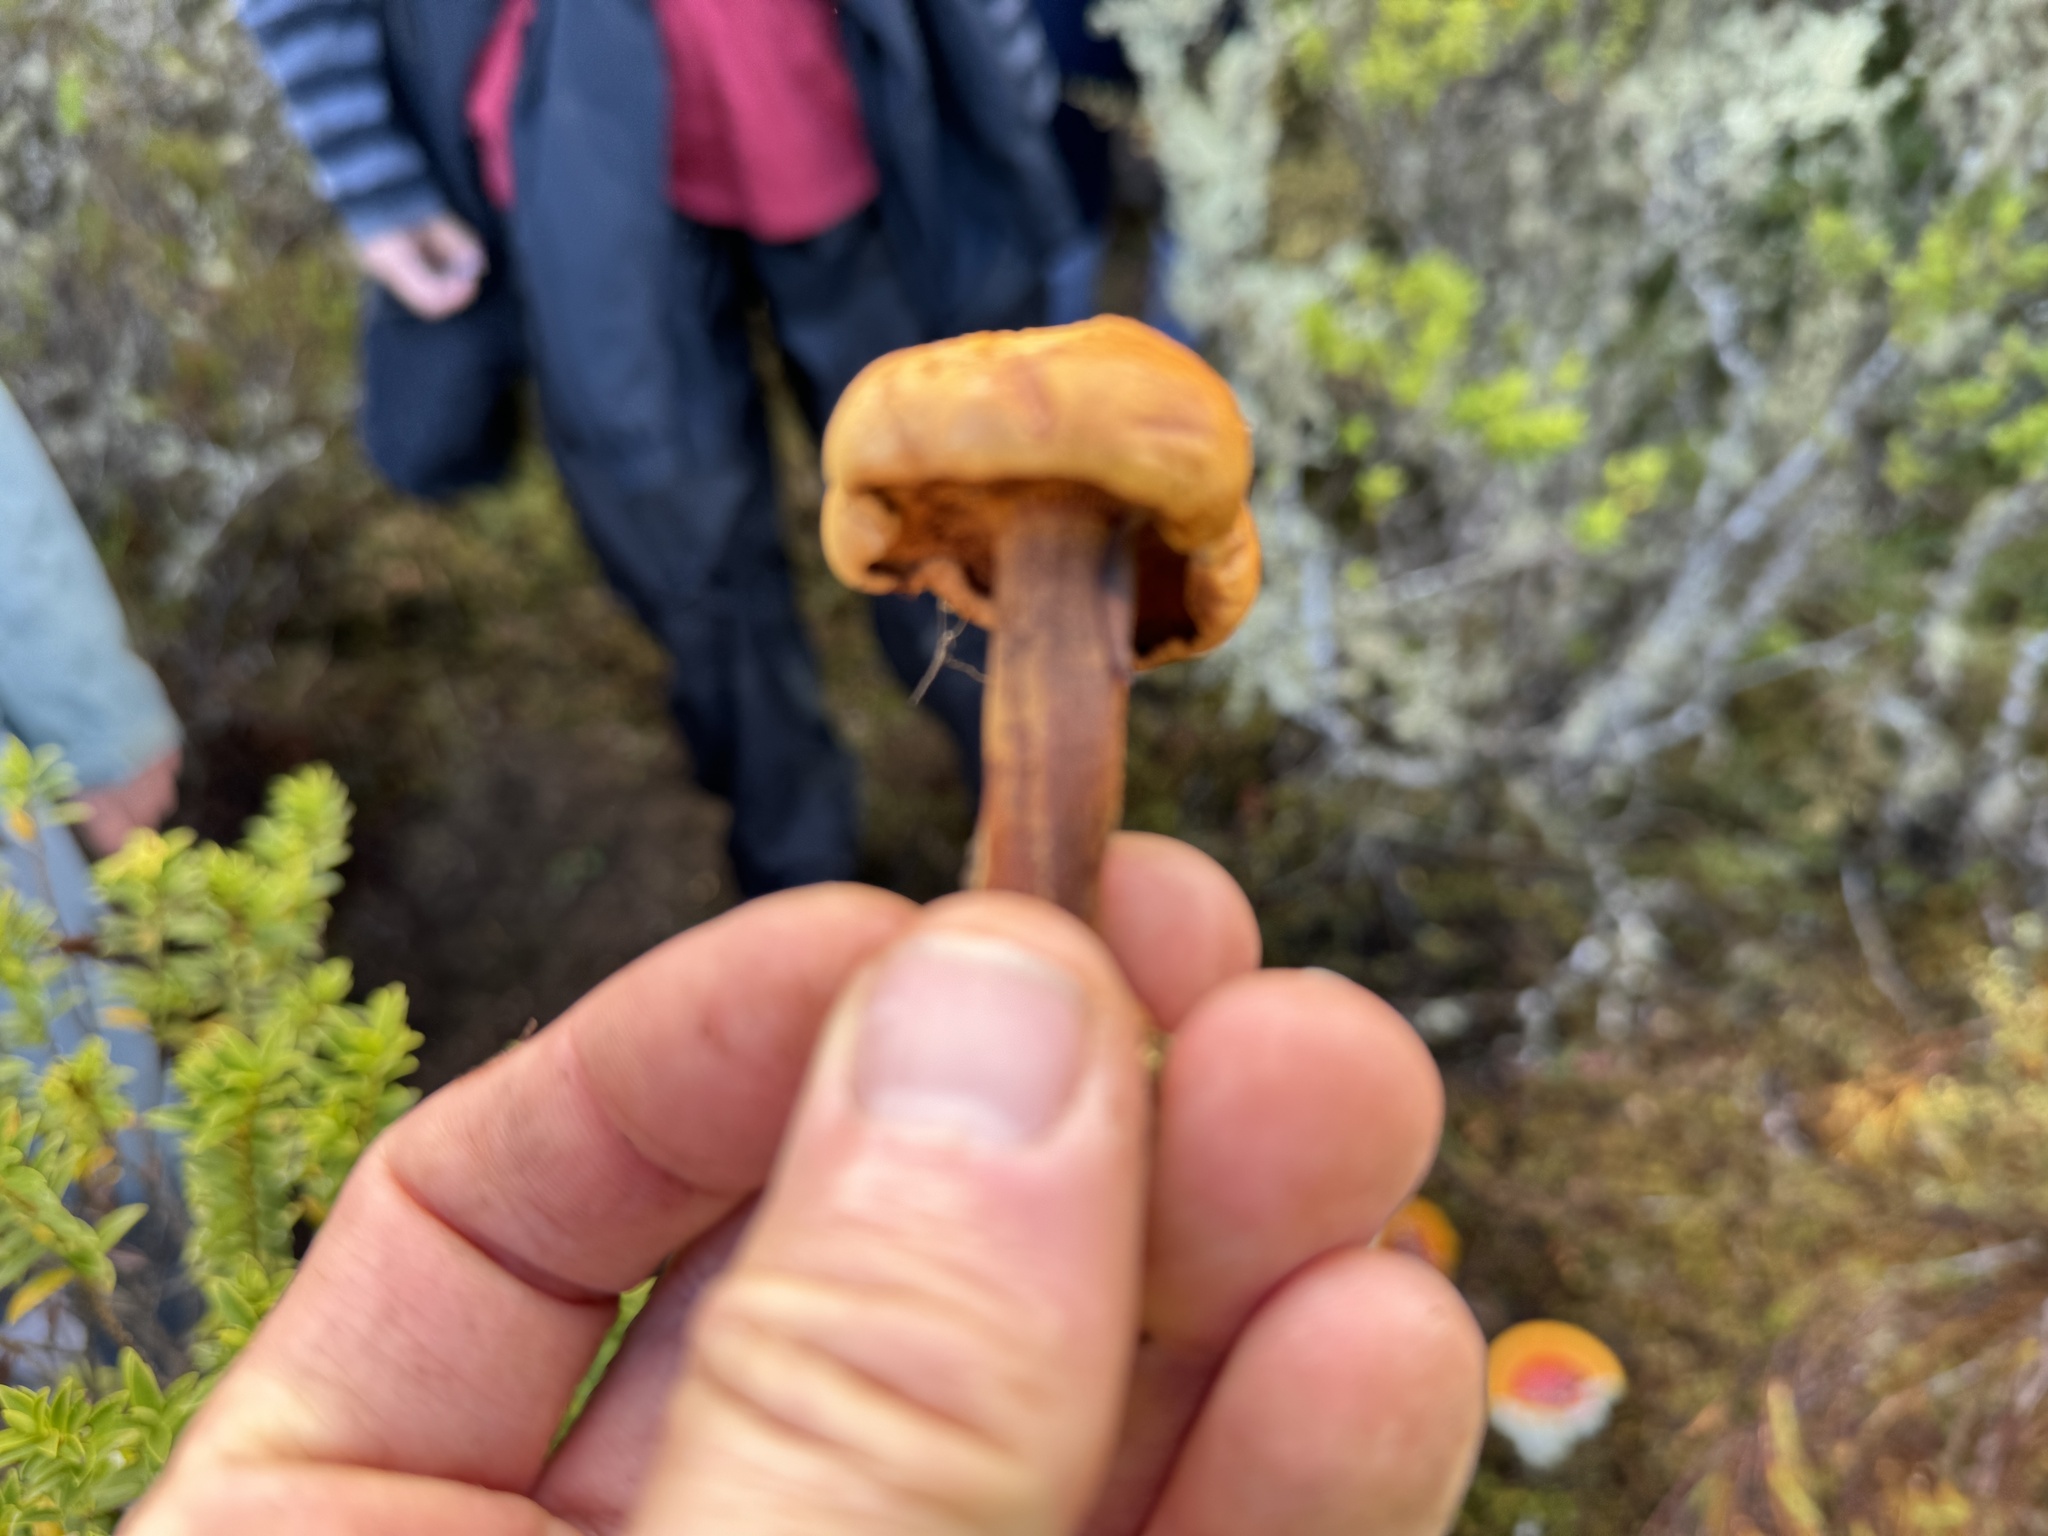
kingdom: Fungi
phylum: Basidiomycota
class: Agaricomycetes
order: Boletales
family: Boletaceae
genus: Chalciporus
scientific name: Chalciporus piperatus
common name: Peppery bolete
